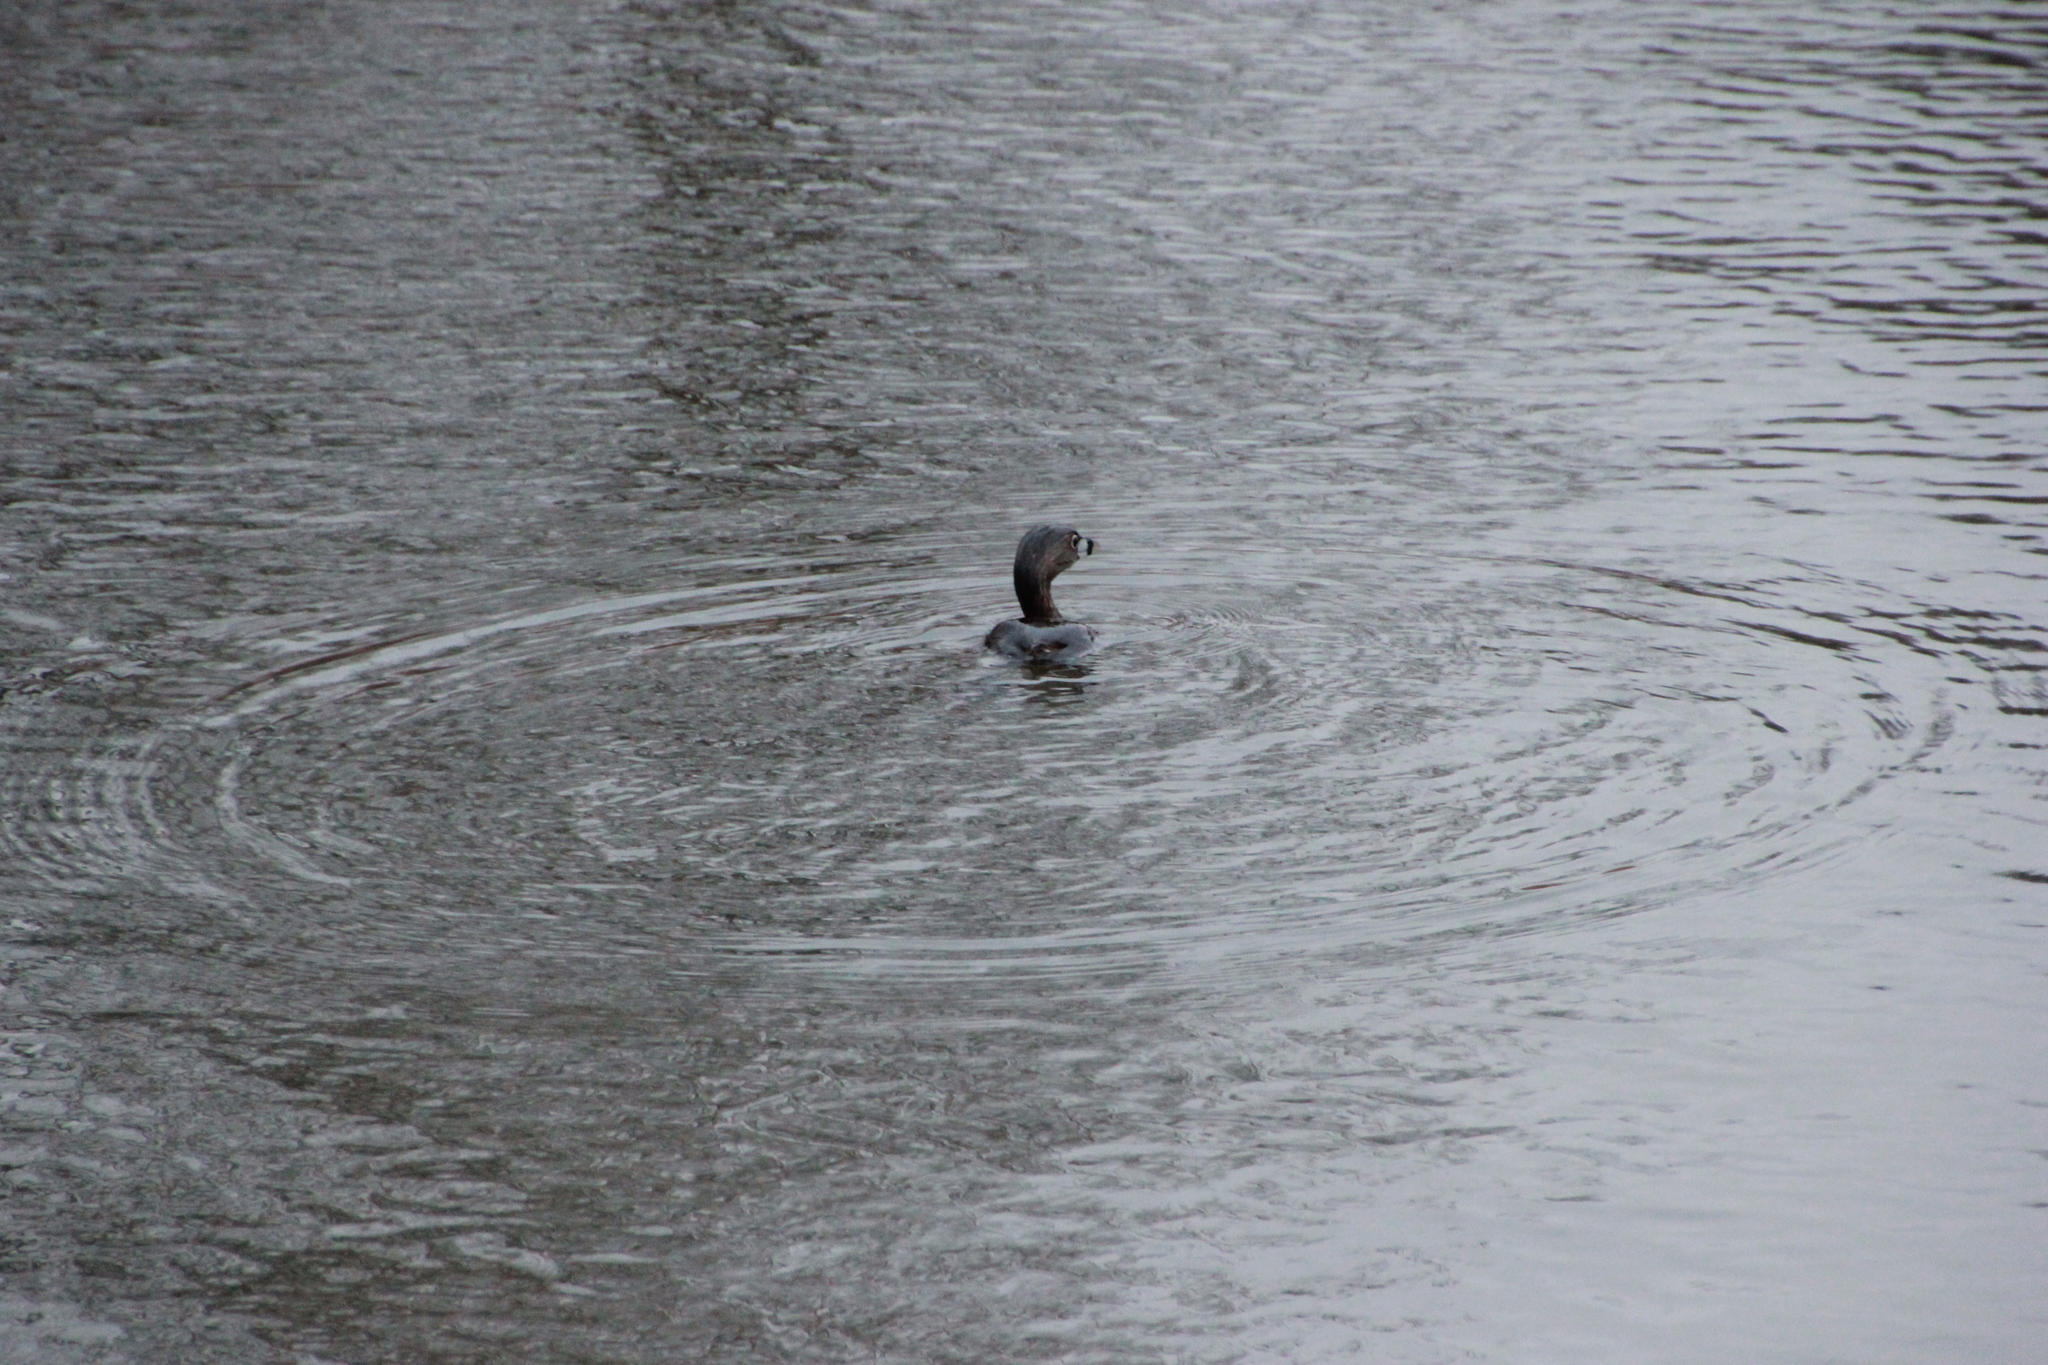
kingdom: Animalia
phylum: Chordata
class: Aves
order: Podicipediformes
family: Podicipedidae
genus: Podilymbus
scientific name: Podilymbus podiceps
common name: Pied-billed grebe
